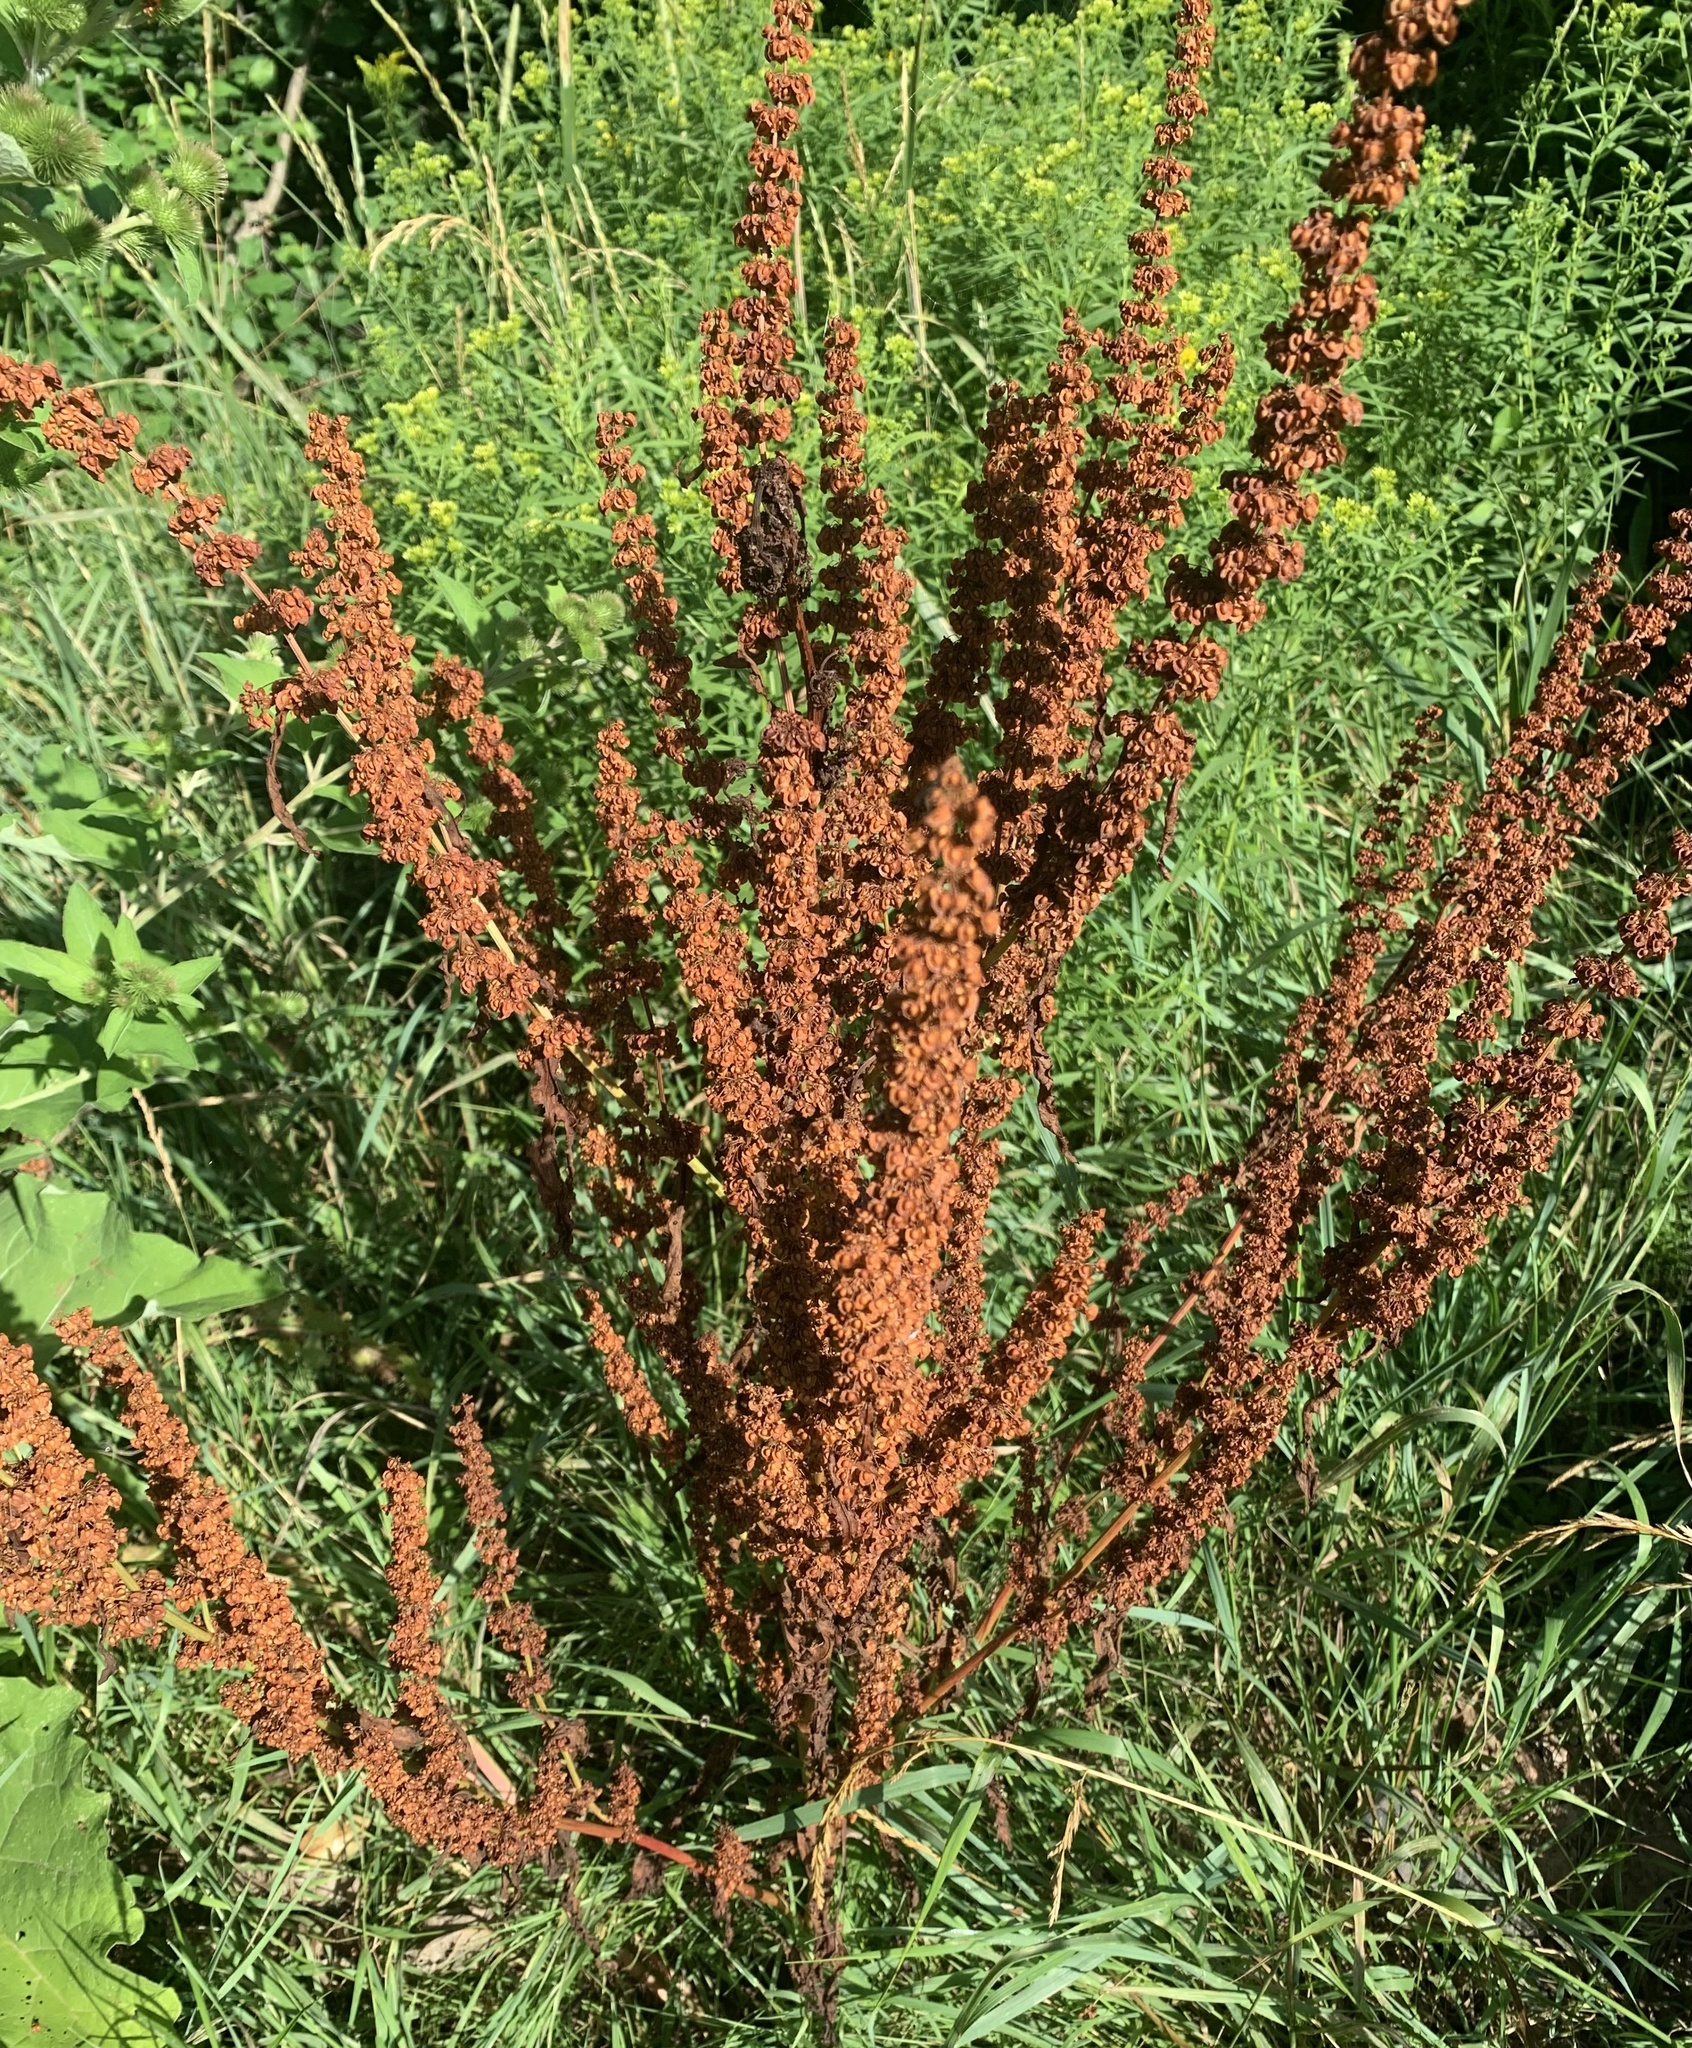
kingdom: Plantae
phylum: Tracheophyta
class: Magnoliopsida
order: Caryophyllales
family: Polygonaceae
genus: Rumex
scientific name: Rumex crispus
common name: Curled dock
